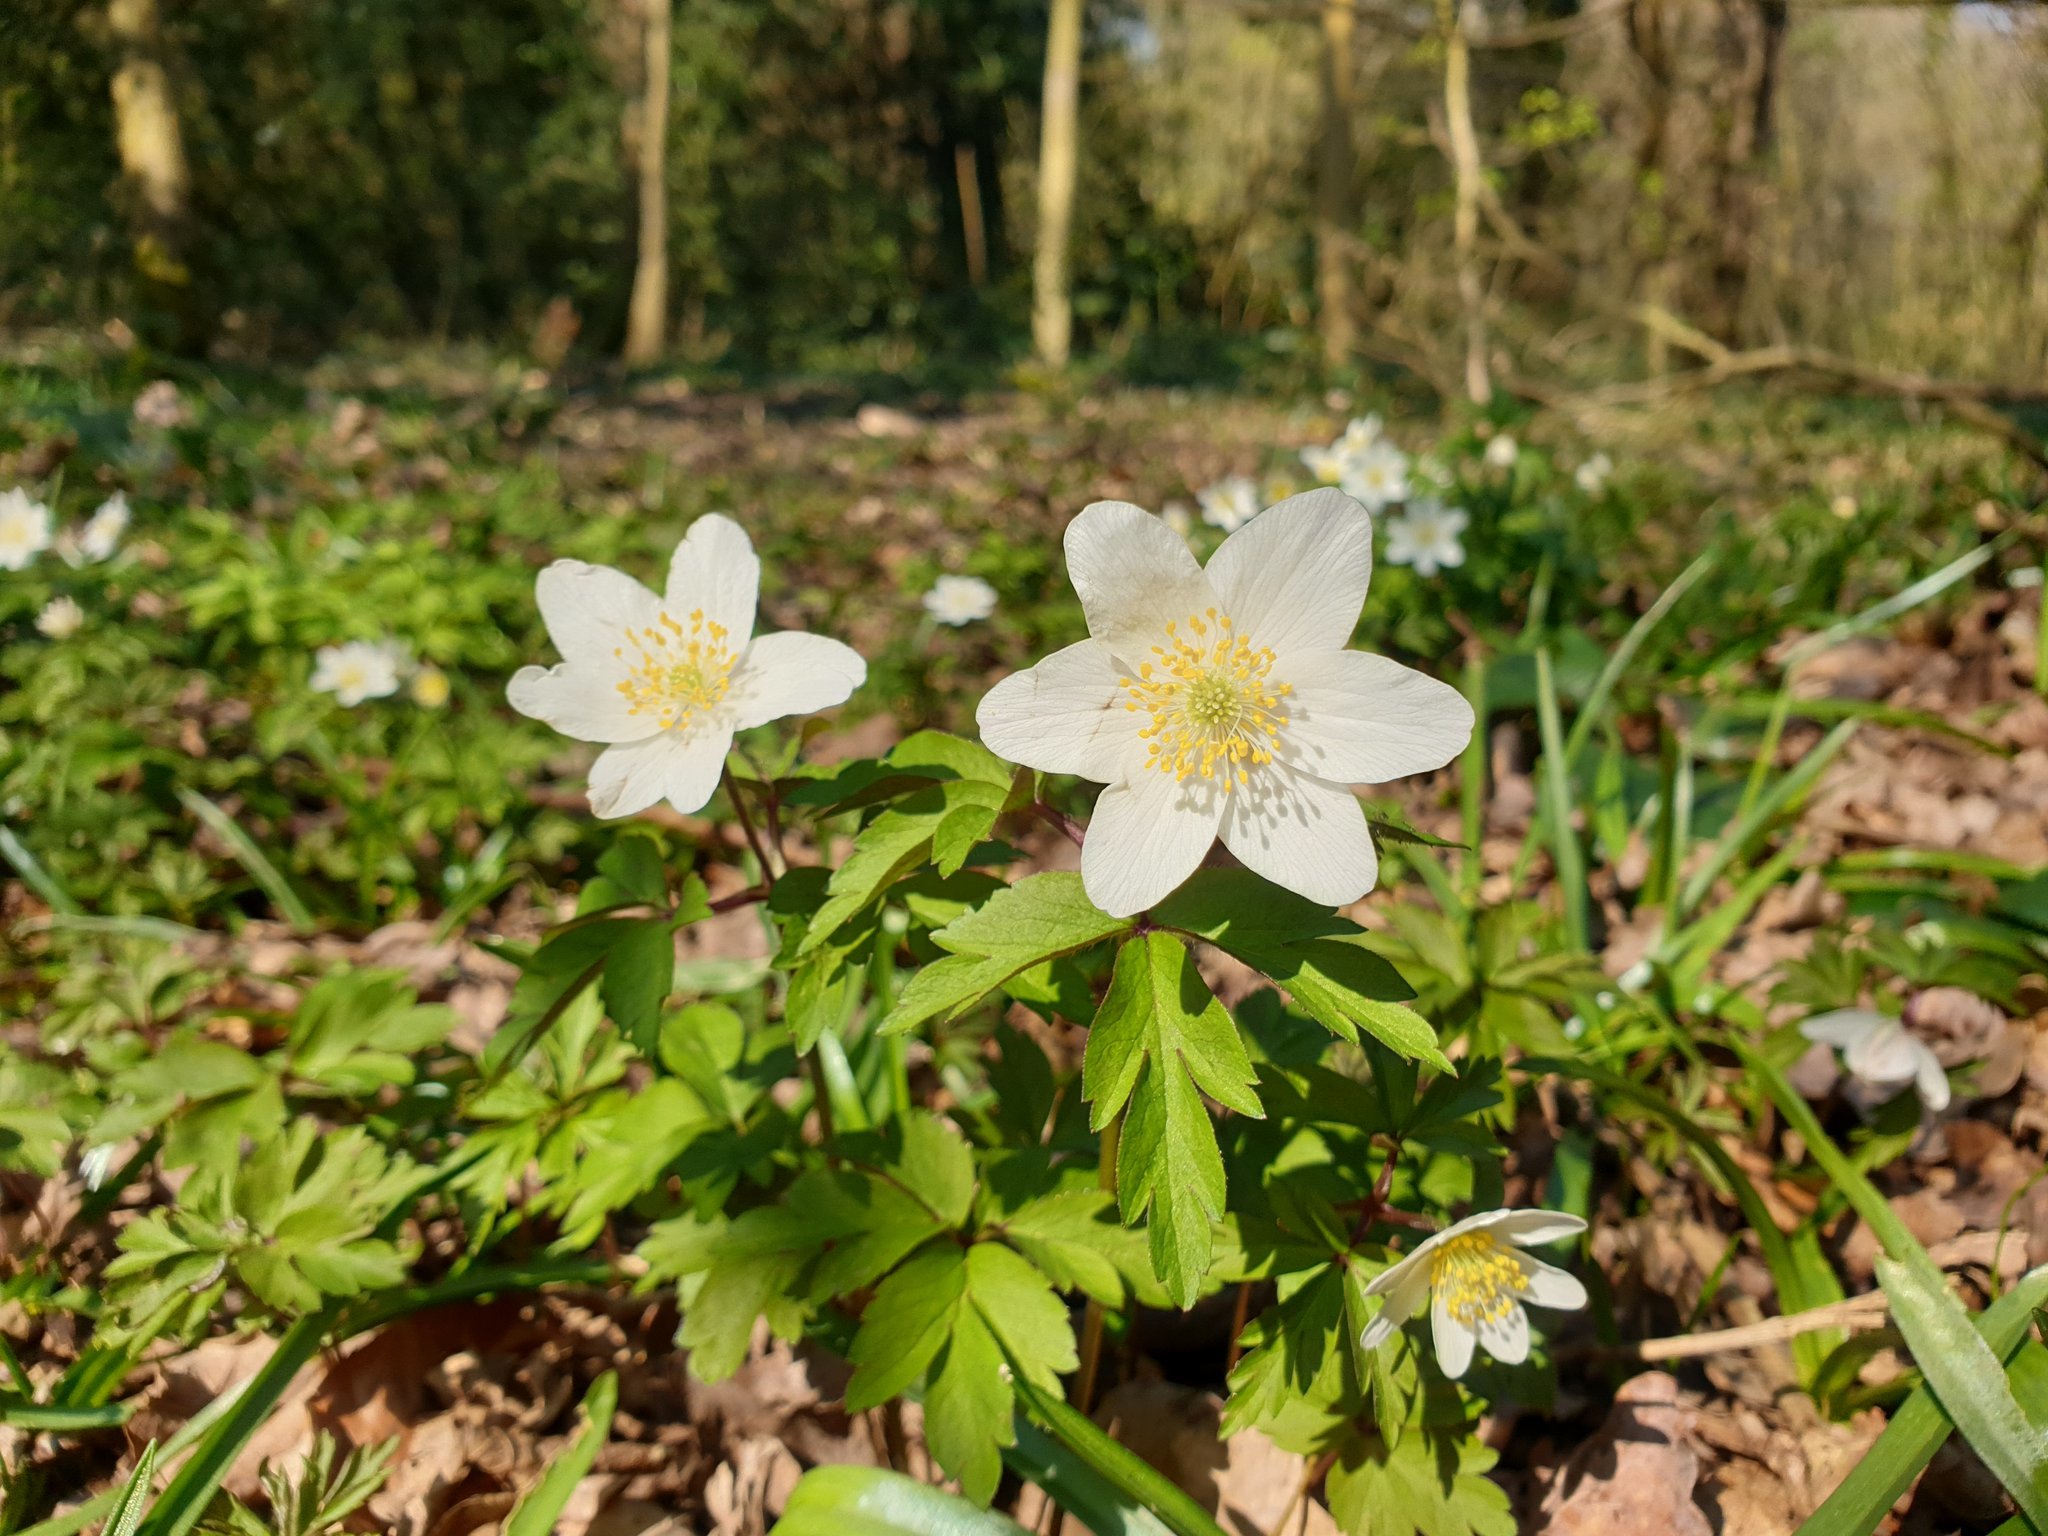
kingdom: Plantae
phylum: Tracheophyta
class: Magnoliopsida
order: Ranunculales
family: Ranunculaceae
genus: Anemone
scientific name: Anemone nemorosa
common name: Wood anemone
